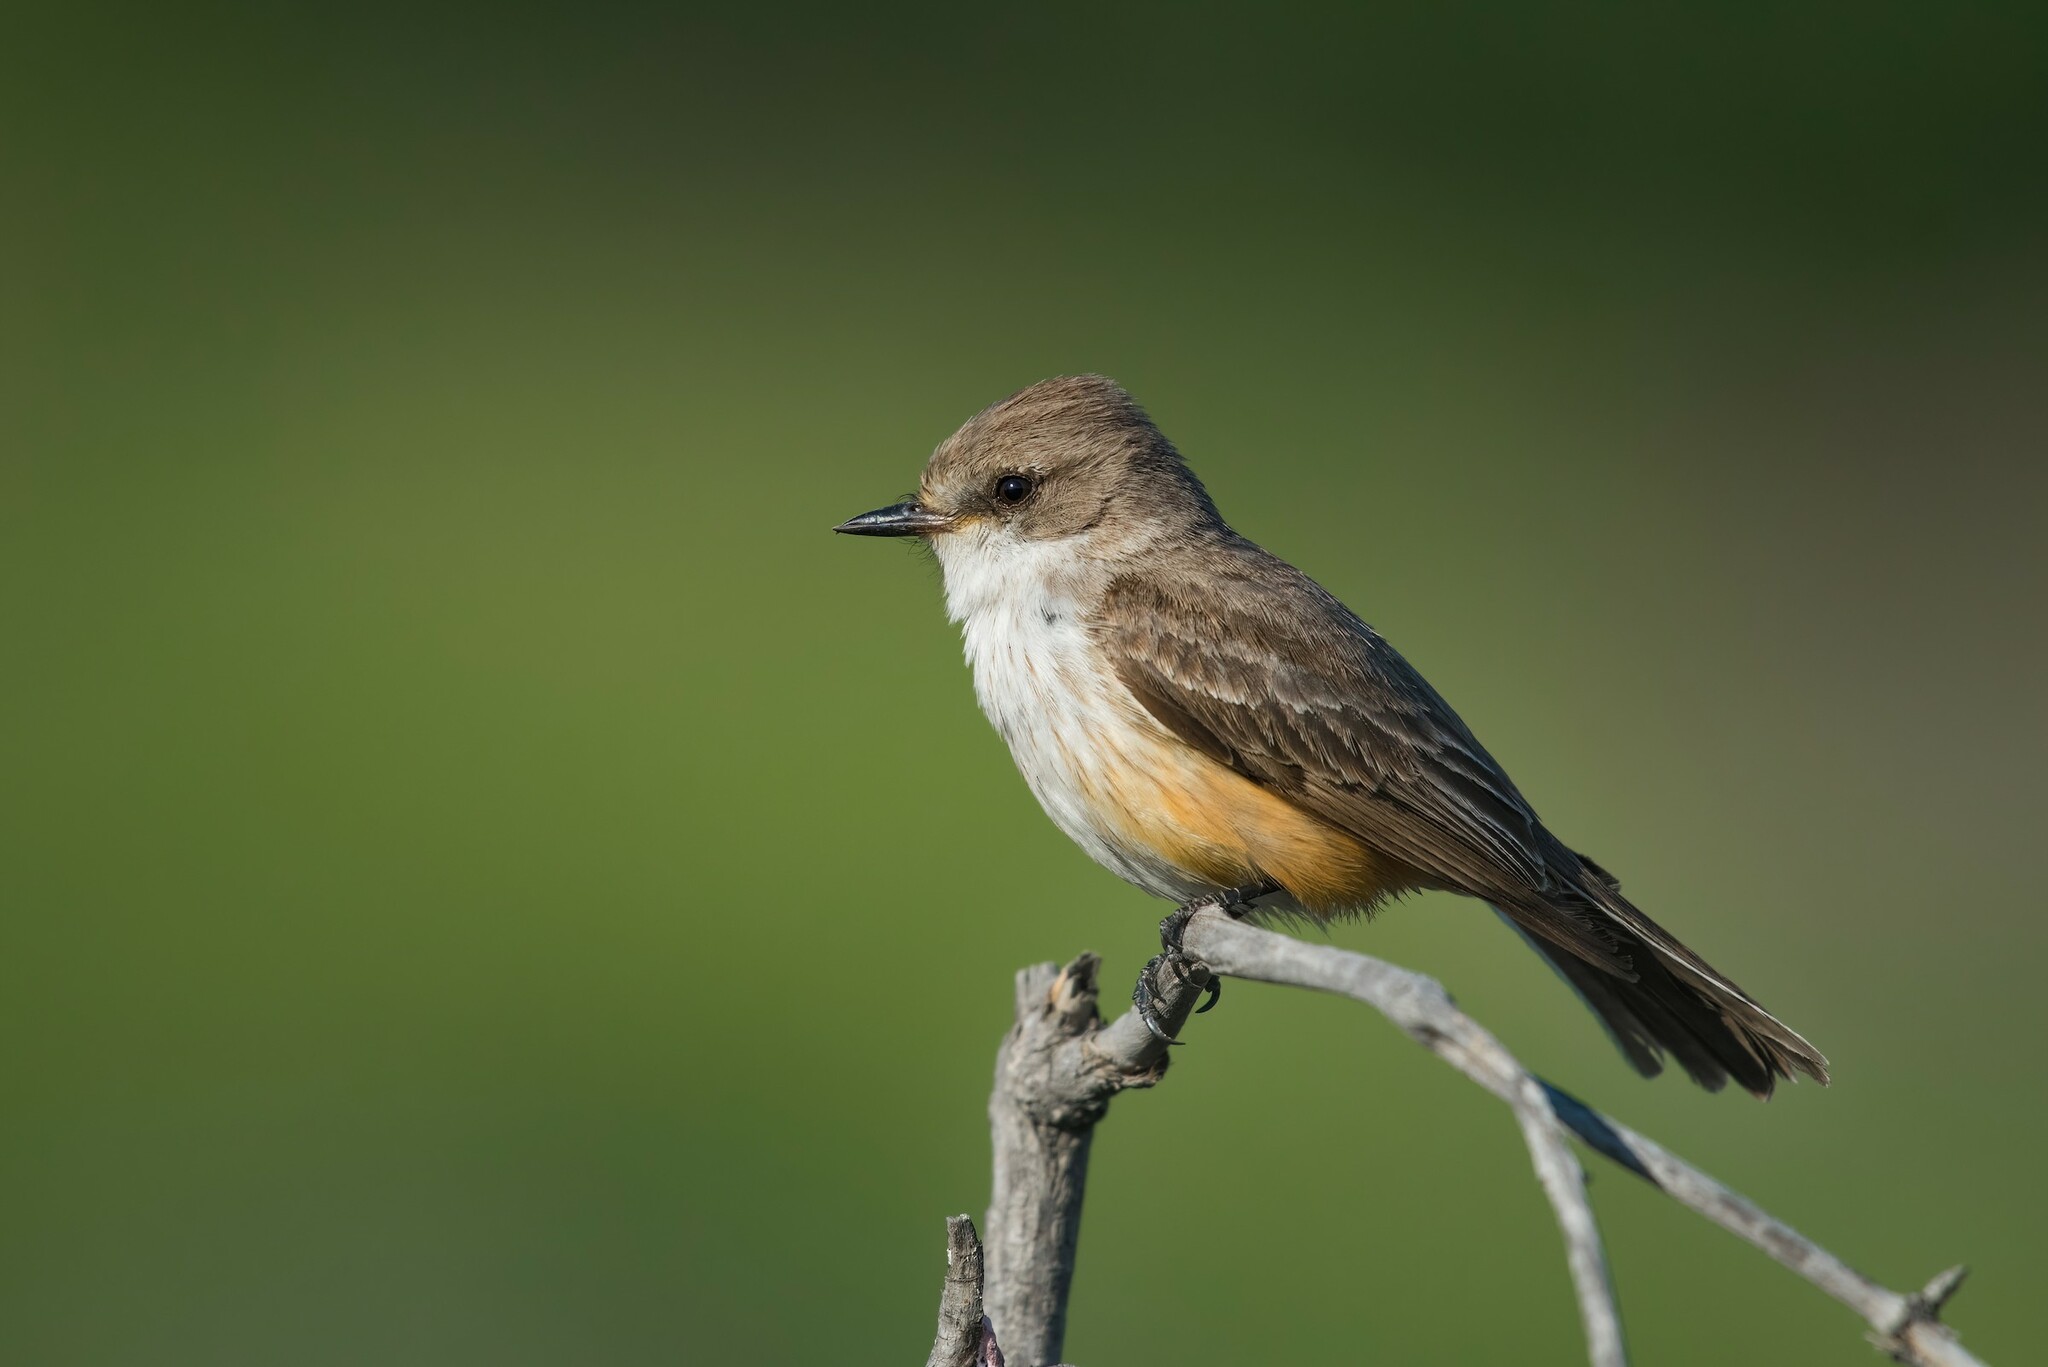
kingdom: Animalia
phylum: Chordata
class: Aves
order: Passeriformes
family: Tyrannidae
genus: Pyrocephalus
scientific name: Pyrocephalus rubinus
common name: Vermilion flycatcher
